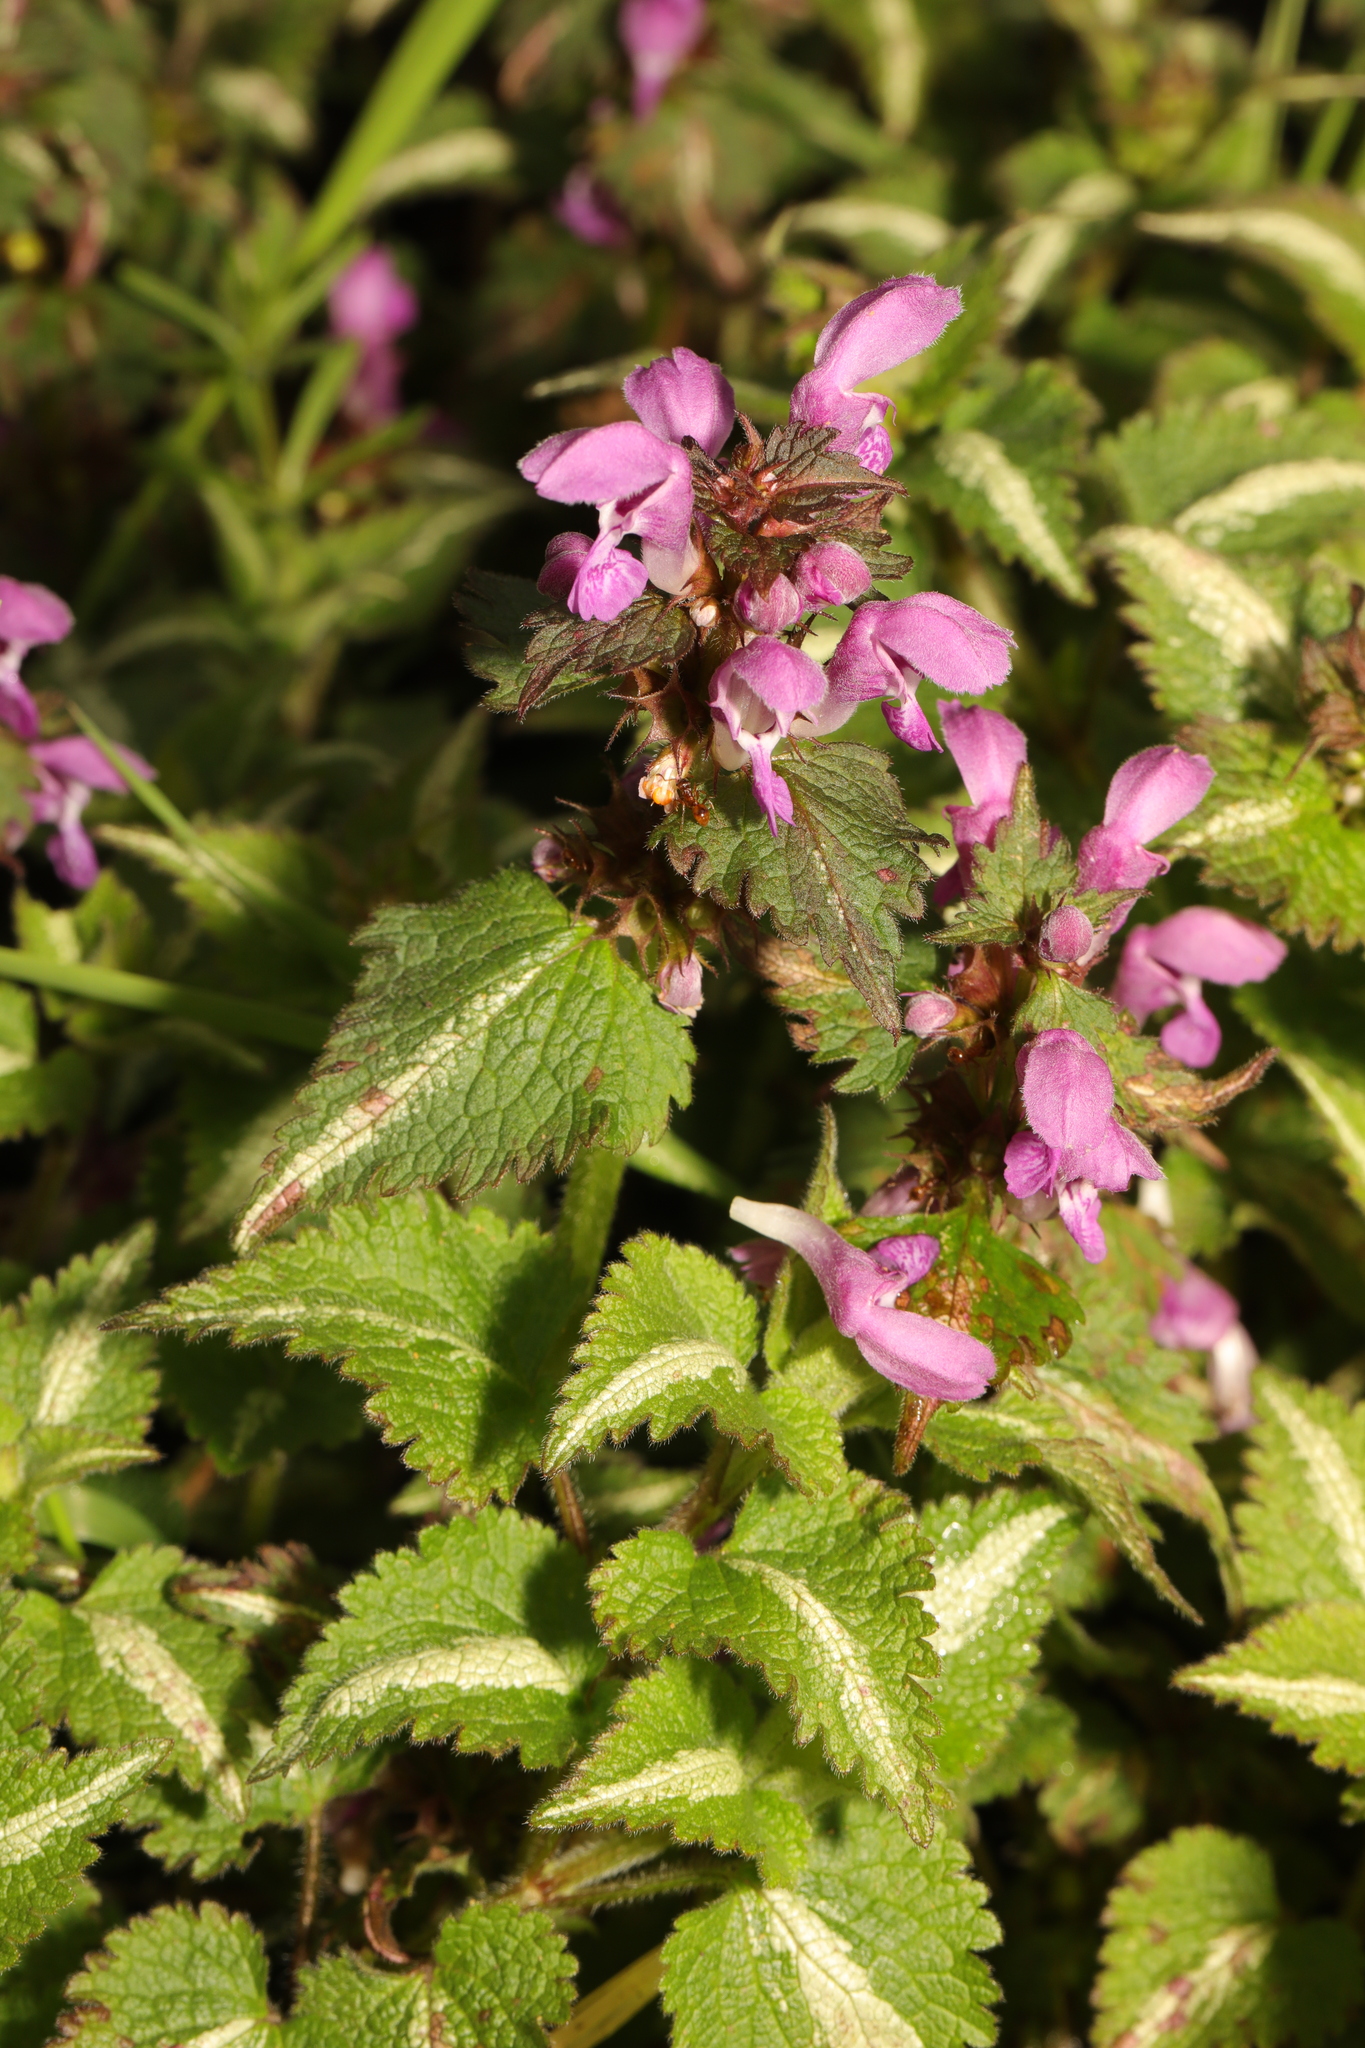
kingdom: Plantae
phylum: Tracheophyta
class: Magnoliopsida
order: Lamiales
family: Lamiaceae
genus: Lamium
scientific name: Lamium maculatum
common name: Spotted dead-nettle
